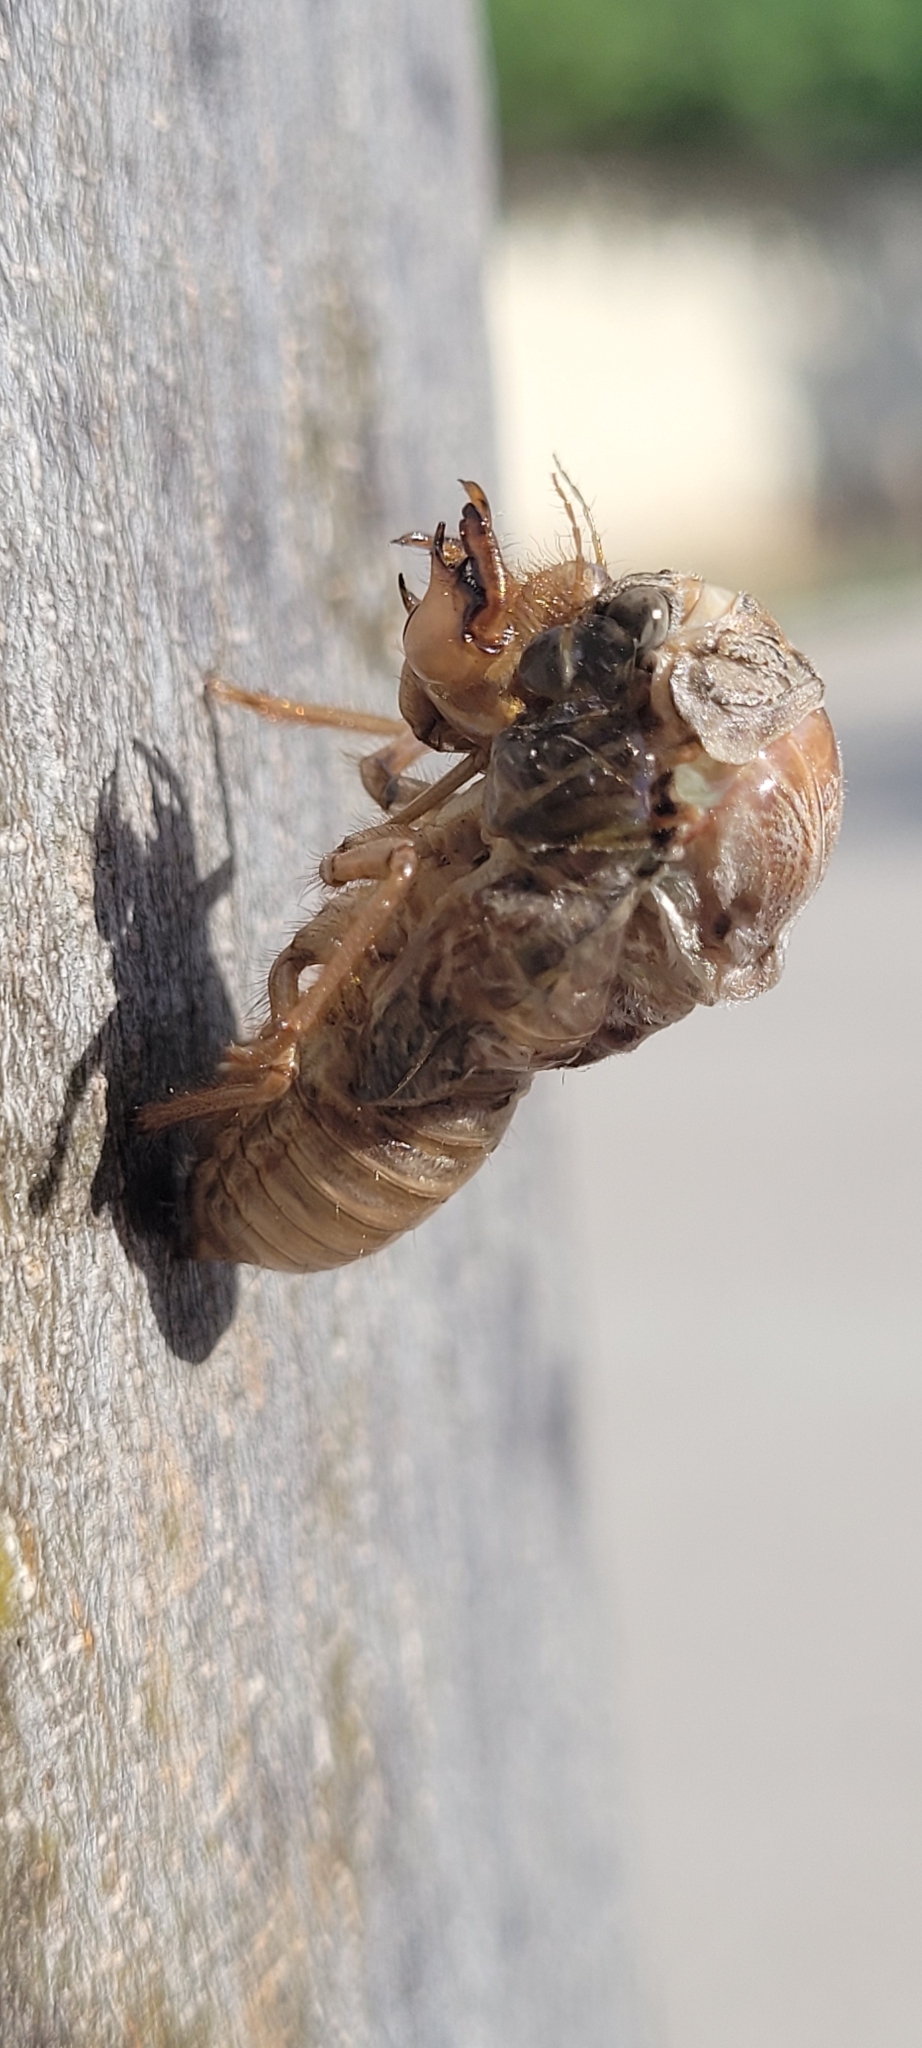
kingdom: Animalia
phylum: Arthropoda
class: Insecta
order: Hemiptera
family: Cicadidae
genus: Cicada
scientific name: Cicada orni
